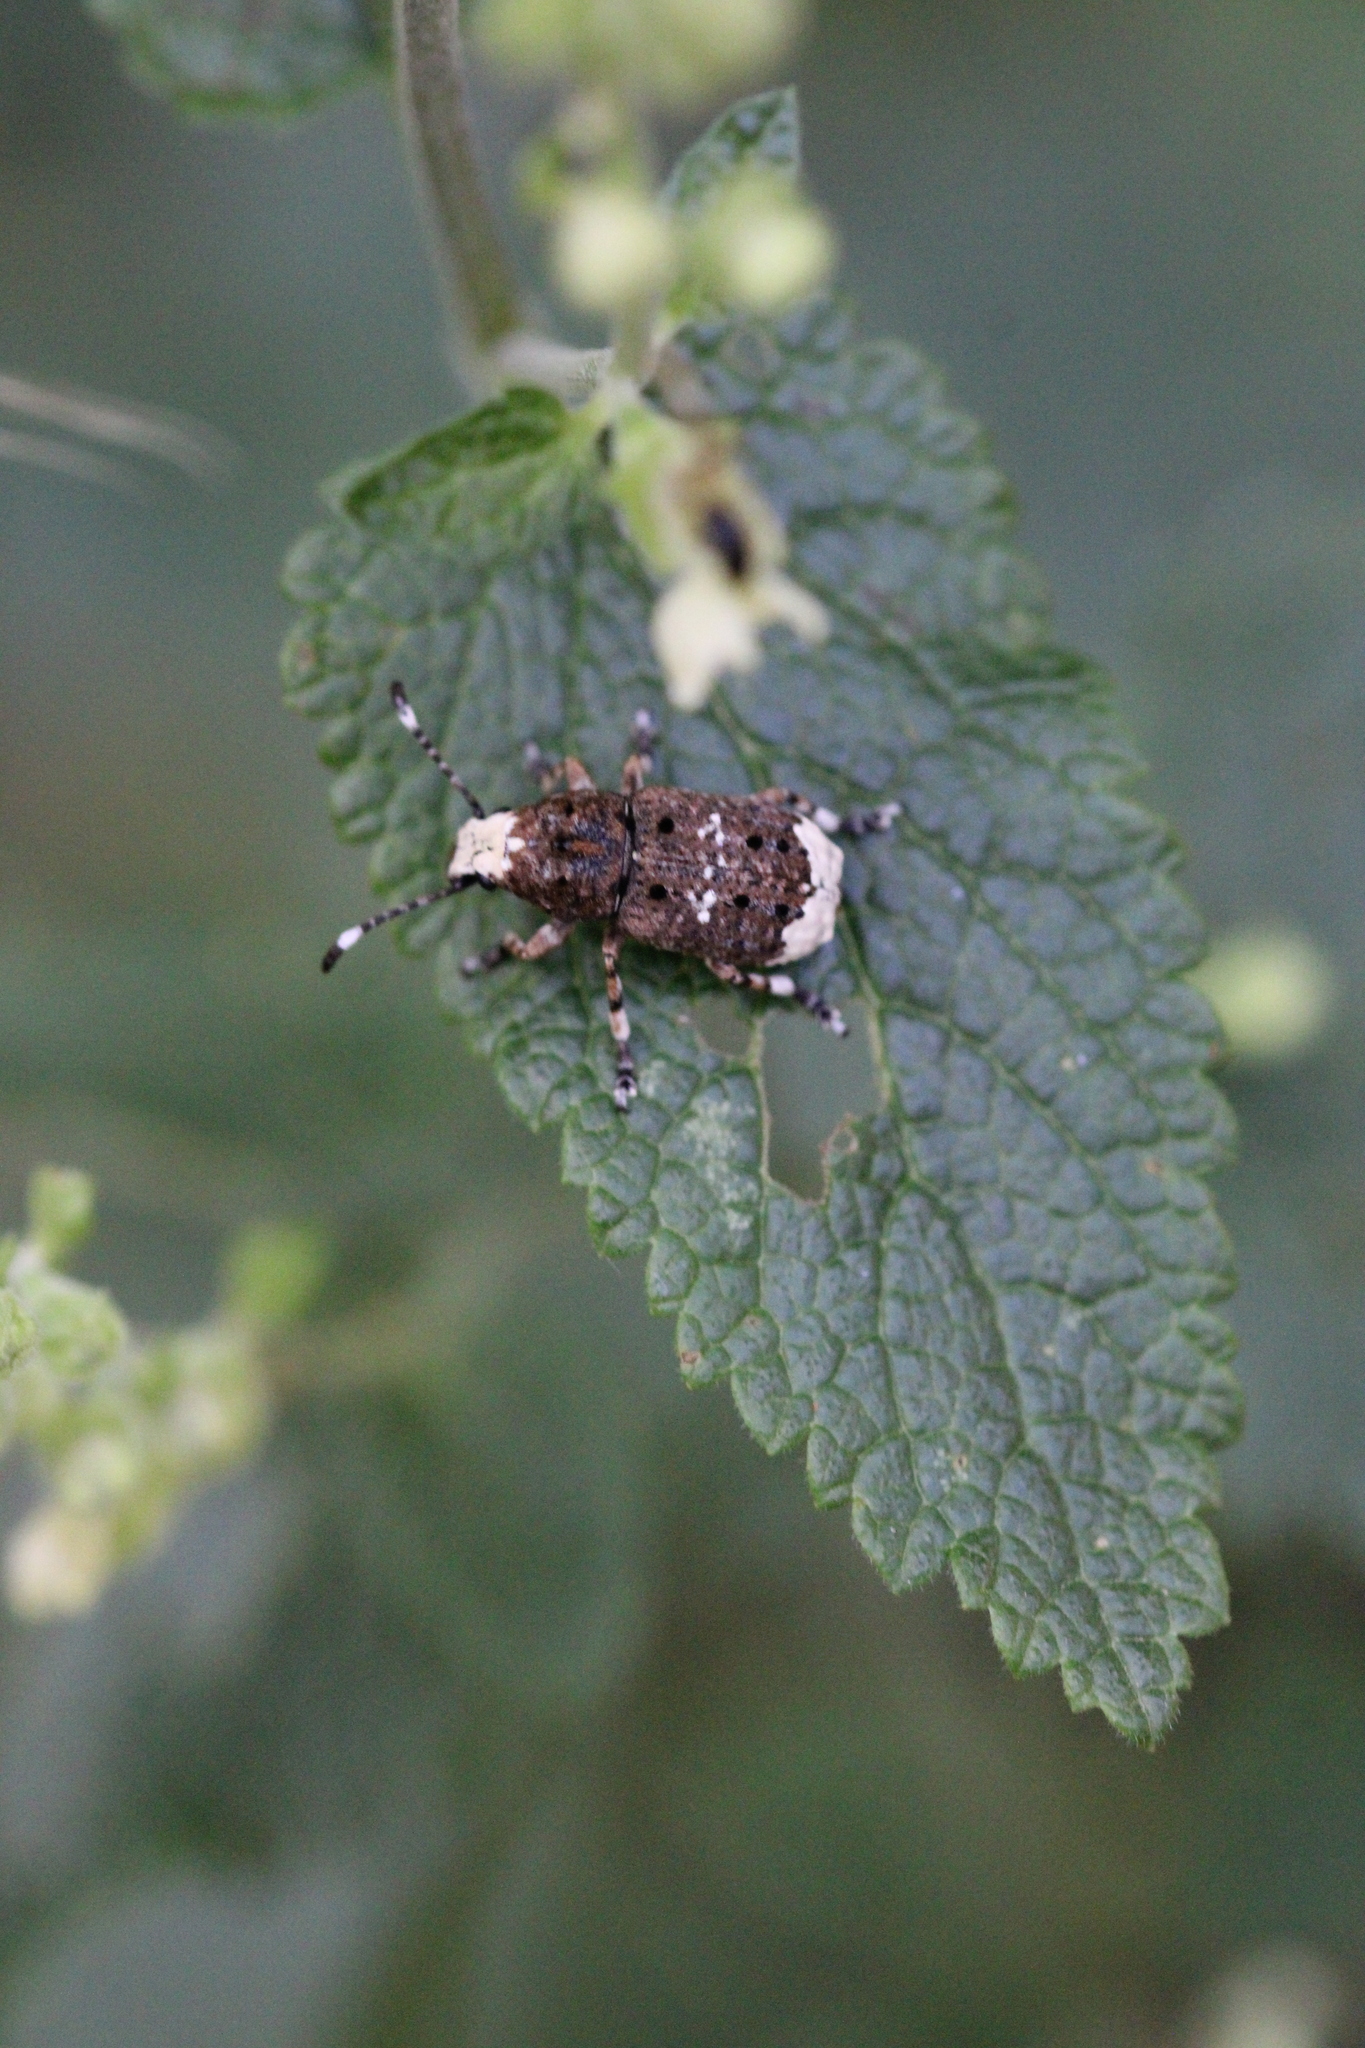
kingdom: Animalia
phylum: Arthropoda
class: Insecta
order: Coleoptera
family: Anthribidae
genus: Platystomos
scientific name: Platystomos albinus
